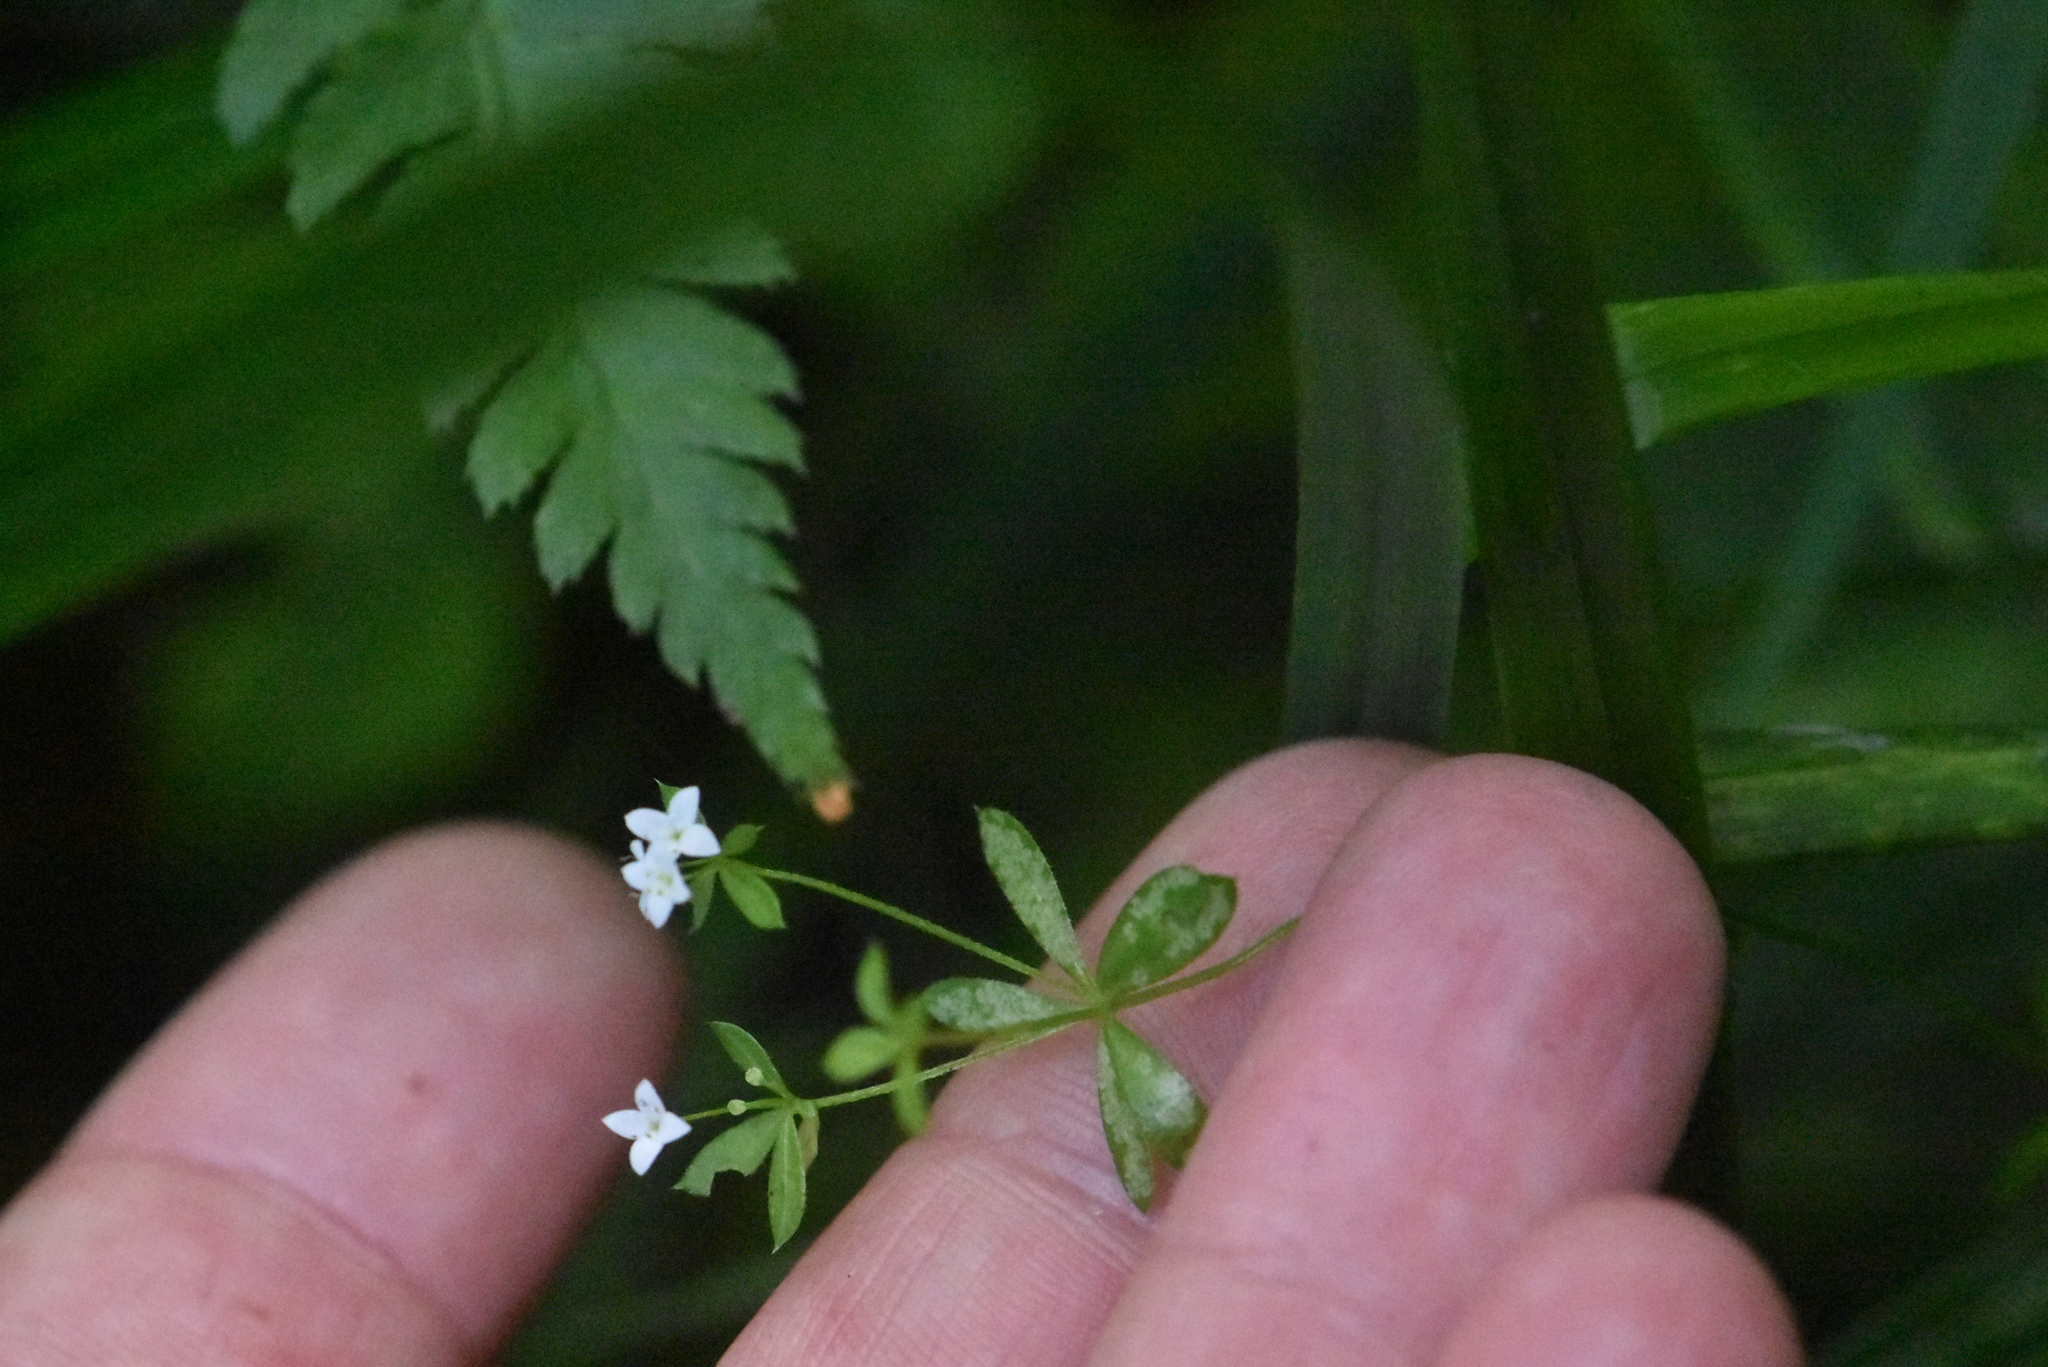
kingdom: Plantae
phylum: Tracheophyta
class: Magnoliopsida
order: Gentianales
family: Rubiaceae
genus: Galium
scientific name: Galium uliginosum
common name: Fen bedstraw
